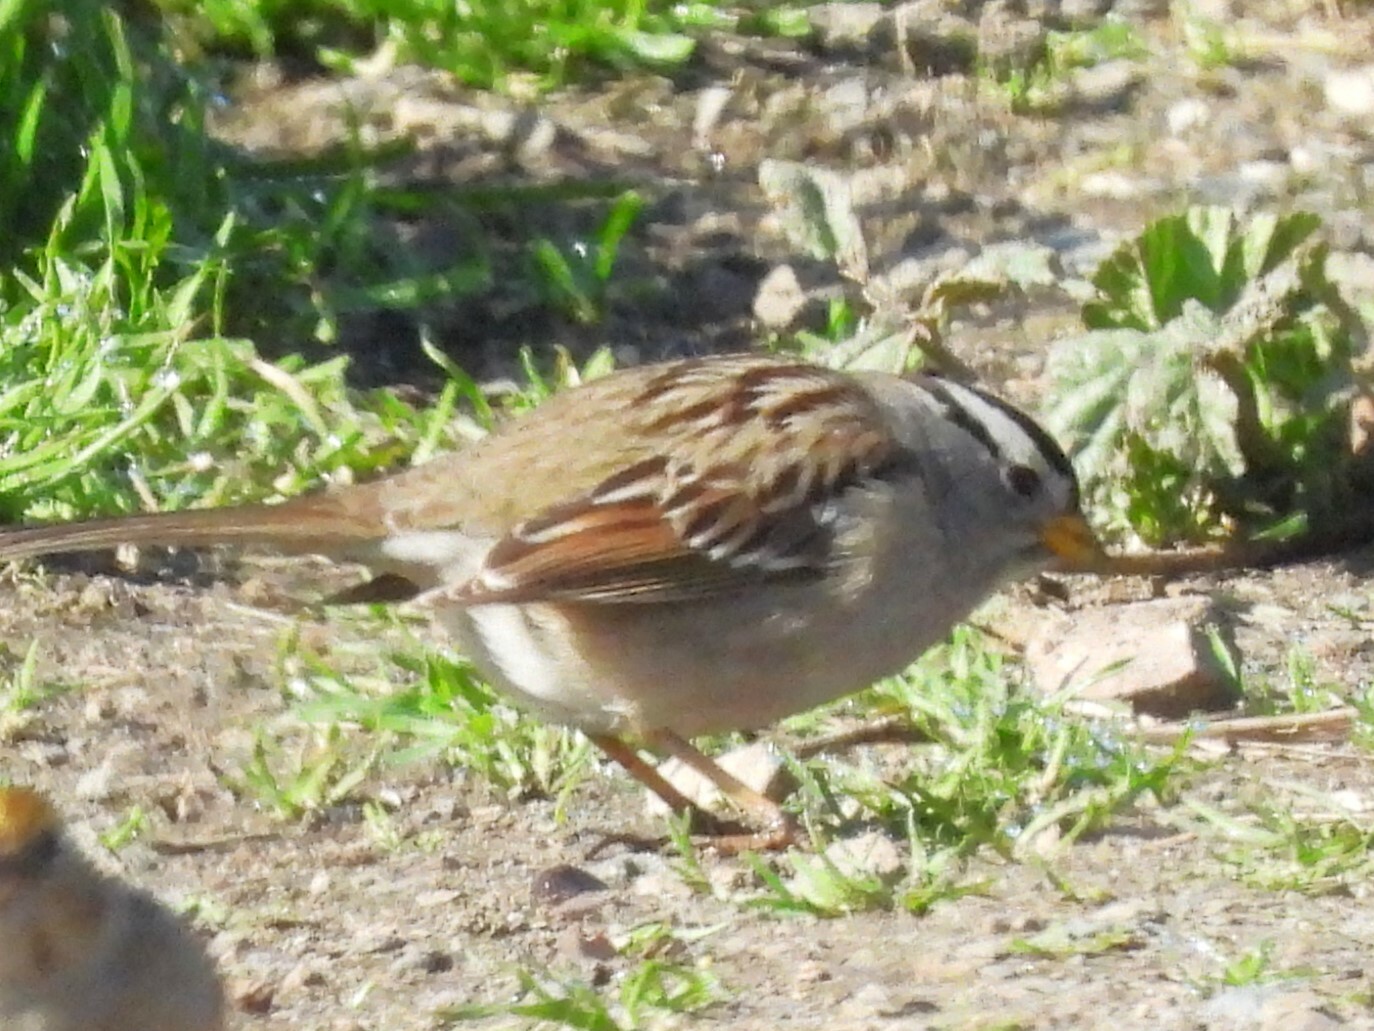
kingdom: Animalia
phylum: Chordata
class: Aves
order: Passeriformes
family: Passerellidae
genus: Zonotrichia
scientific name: Zonotrichia leucophrys
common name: White-crowned sparrow
